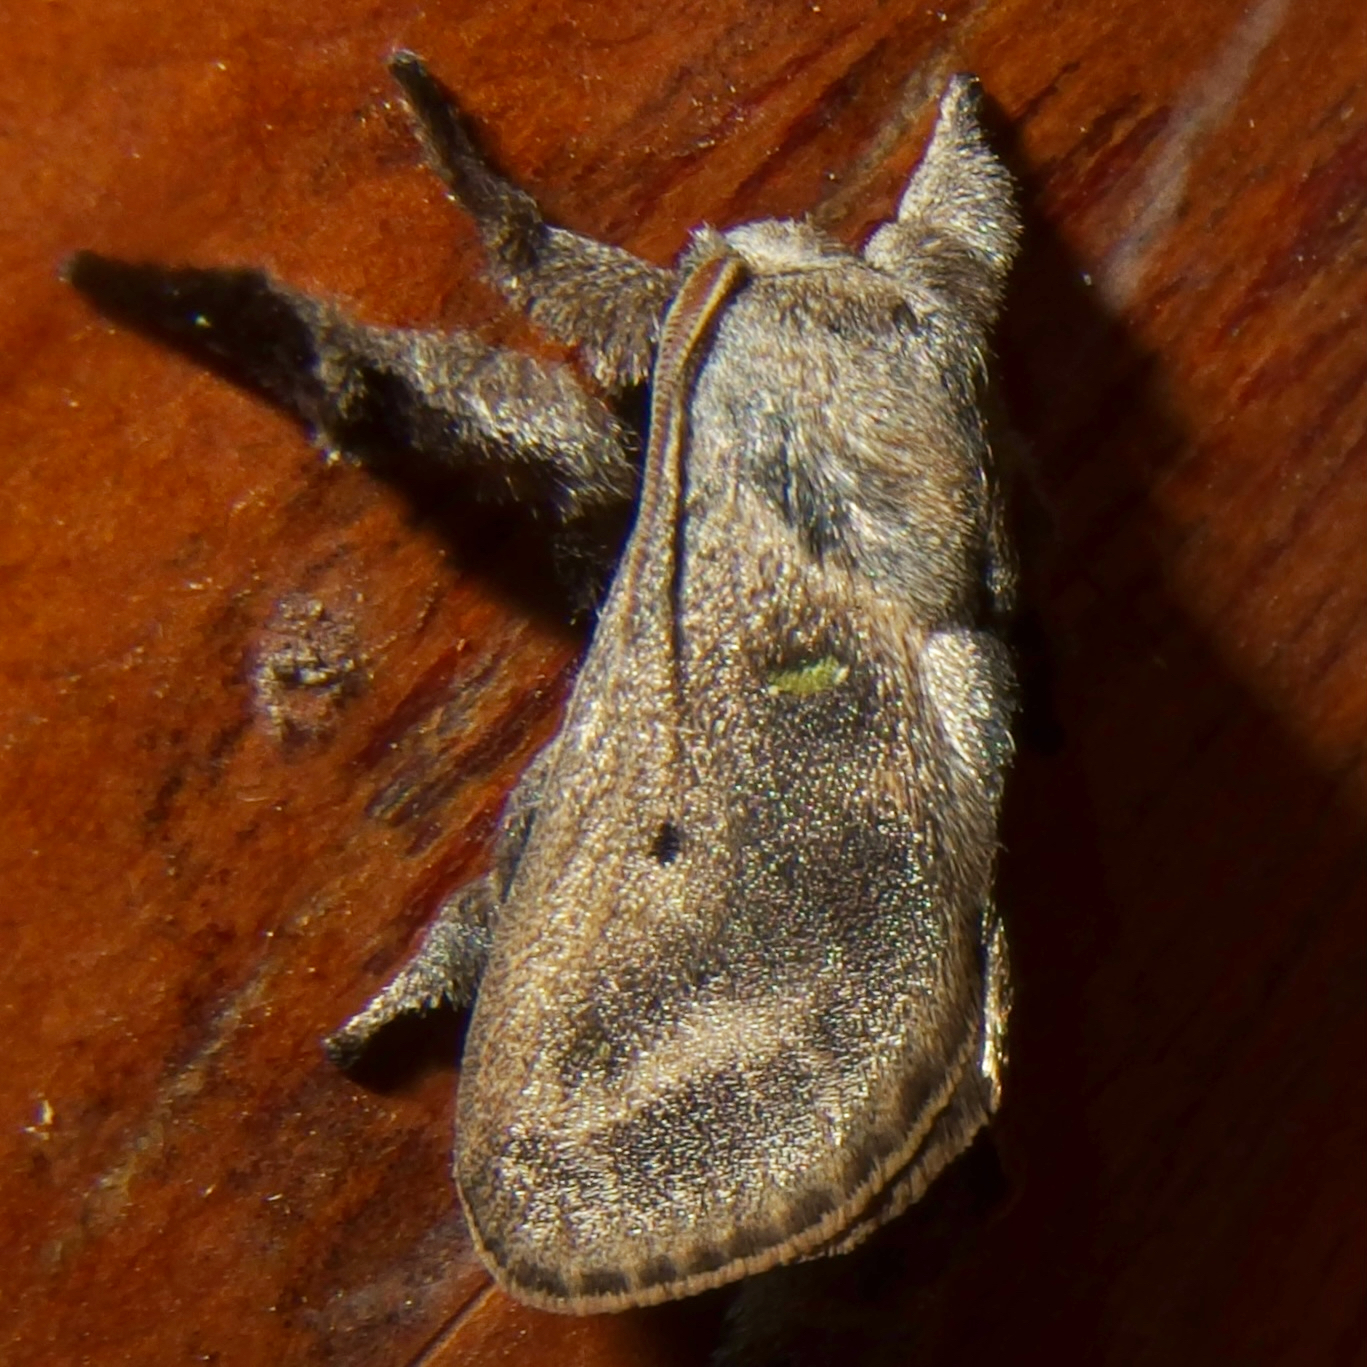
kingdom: Animalia
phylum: Arthropoda
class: Insecta
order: Lepidoptera
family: Limacodidae
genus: Euclea
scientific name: Euclea norba
